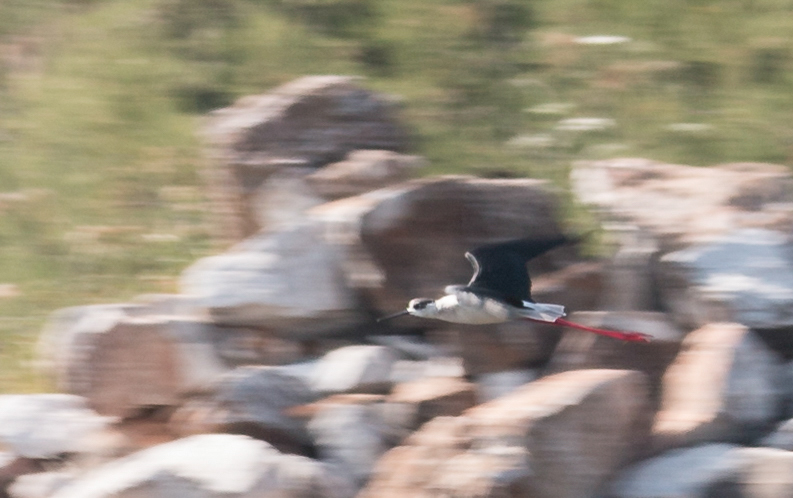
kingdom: Animalia
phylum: Chordata
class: Aves
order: Charadriiformes
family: Recurvirostridae
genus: Himantopus
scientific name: Himantopus himantopus
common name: Black-winged stilt
